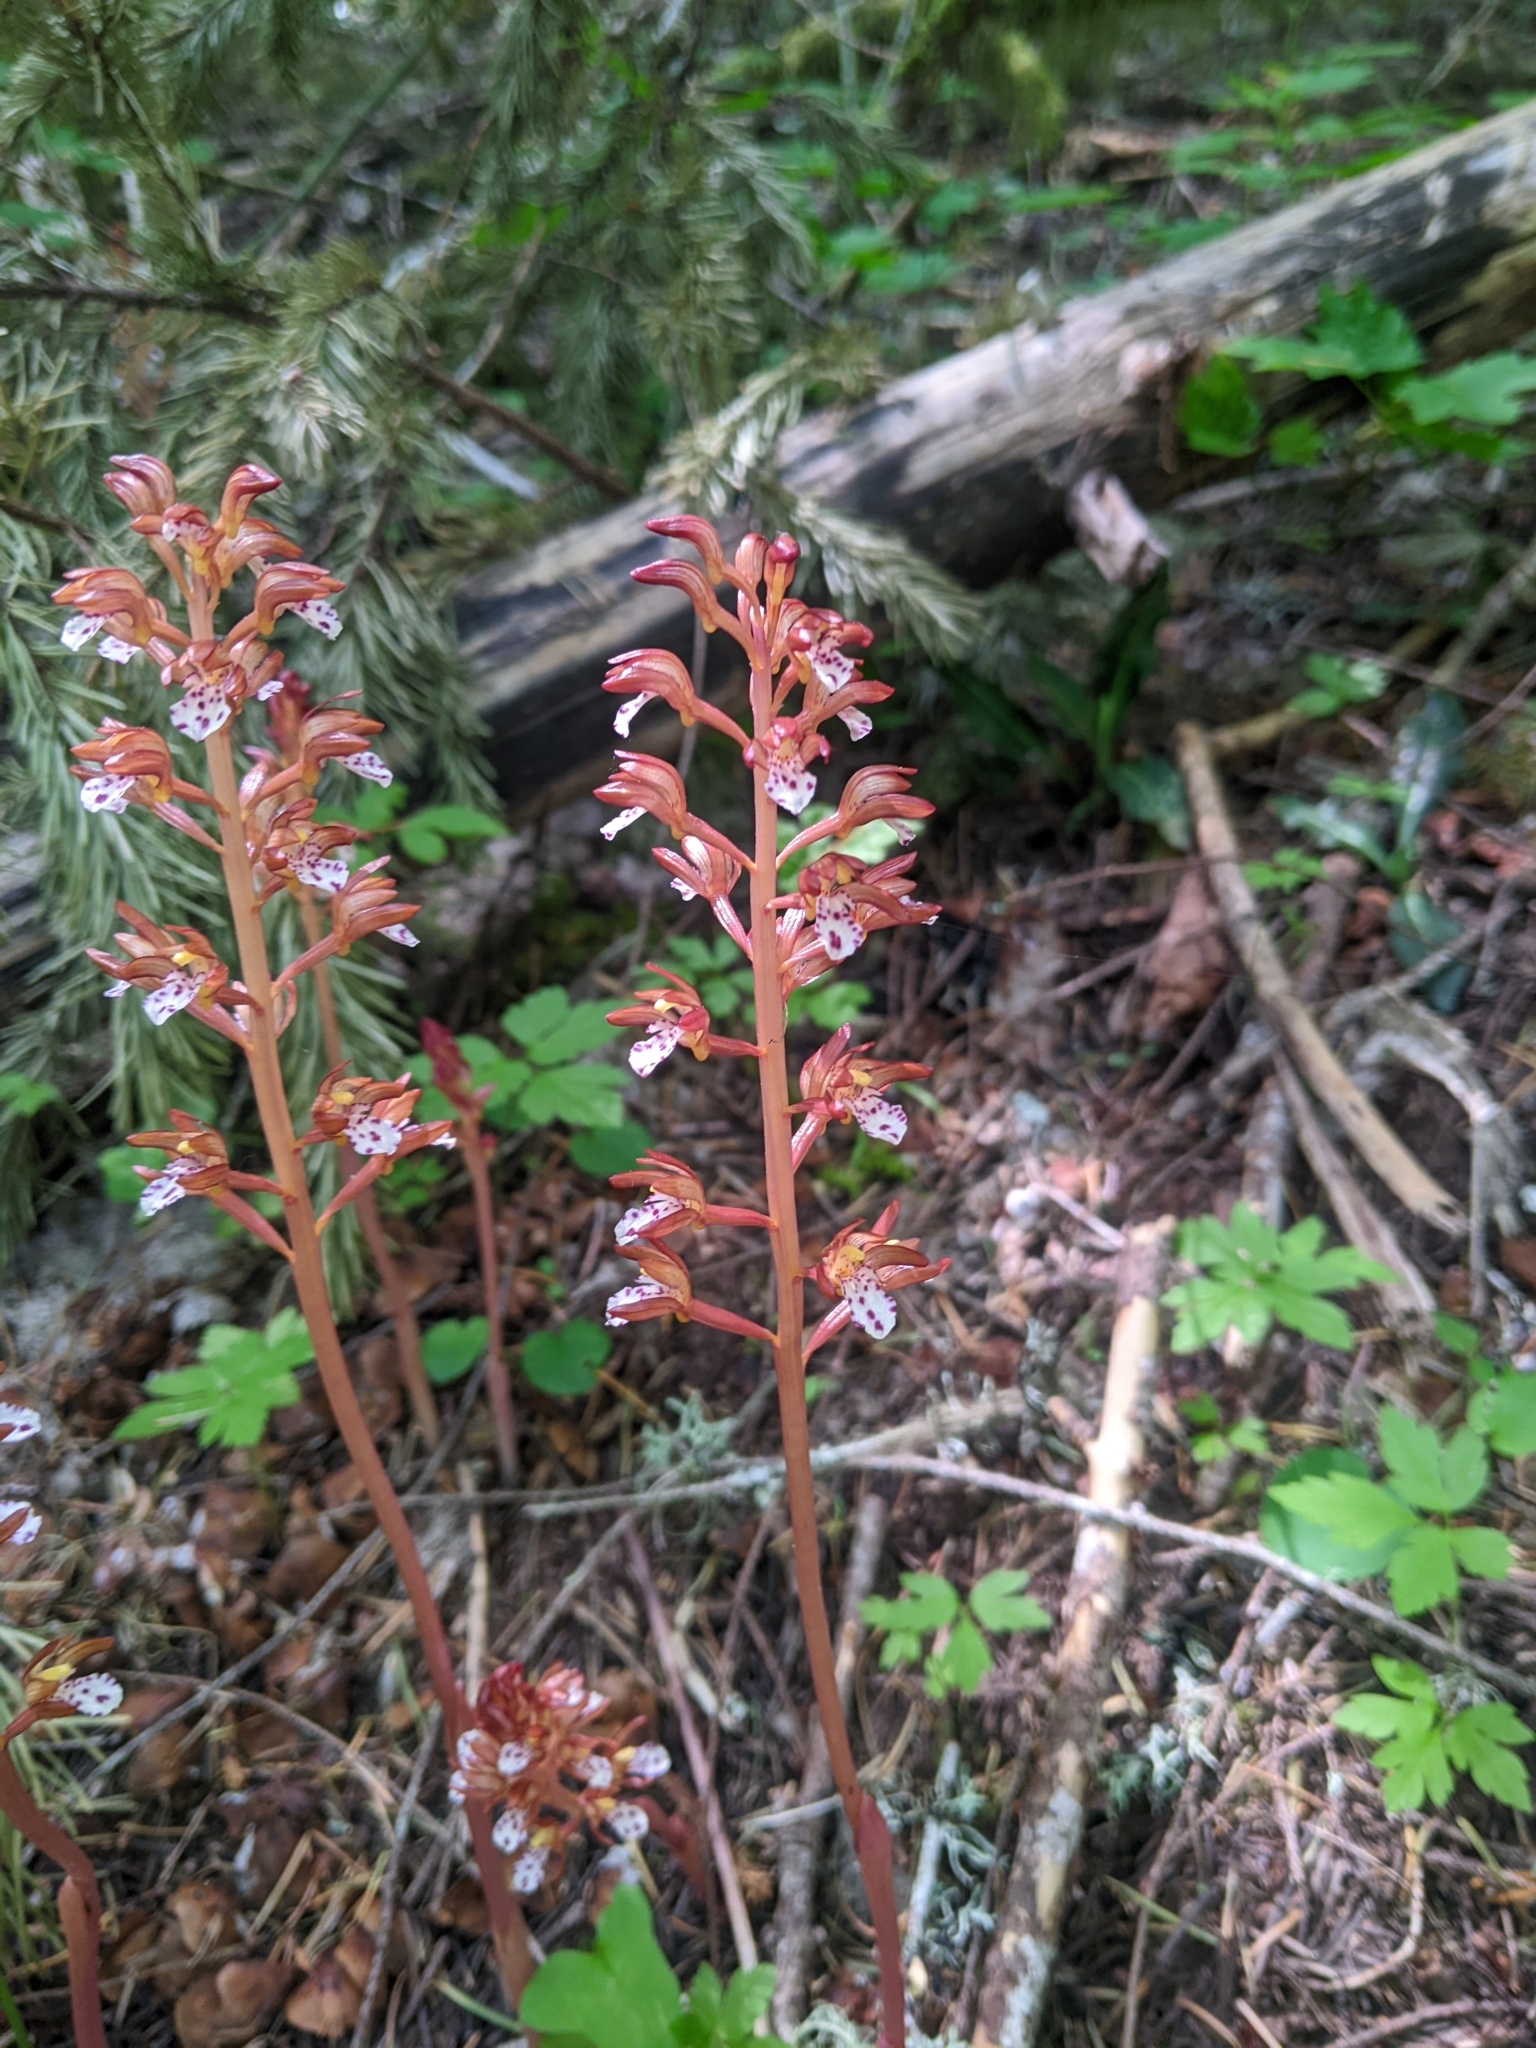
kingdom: Plantae
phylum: Tracheophyta
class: Liliopsida
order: Asparagales
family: Orchidaceae
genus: Corallorhiza
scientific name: Corallorhiza maculata
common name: Spotted coralroot
